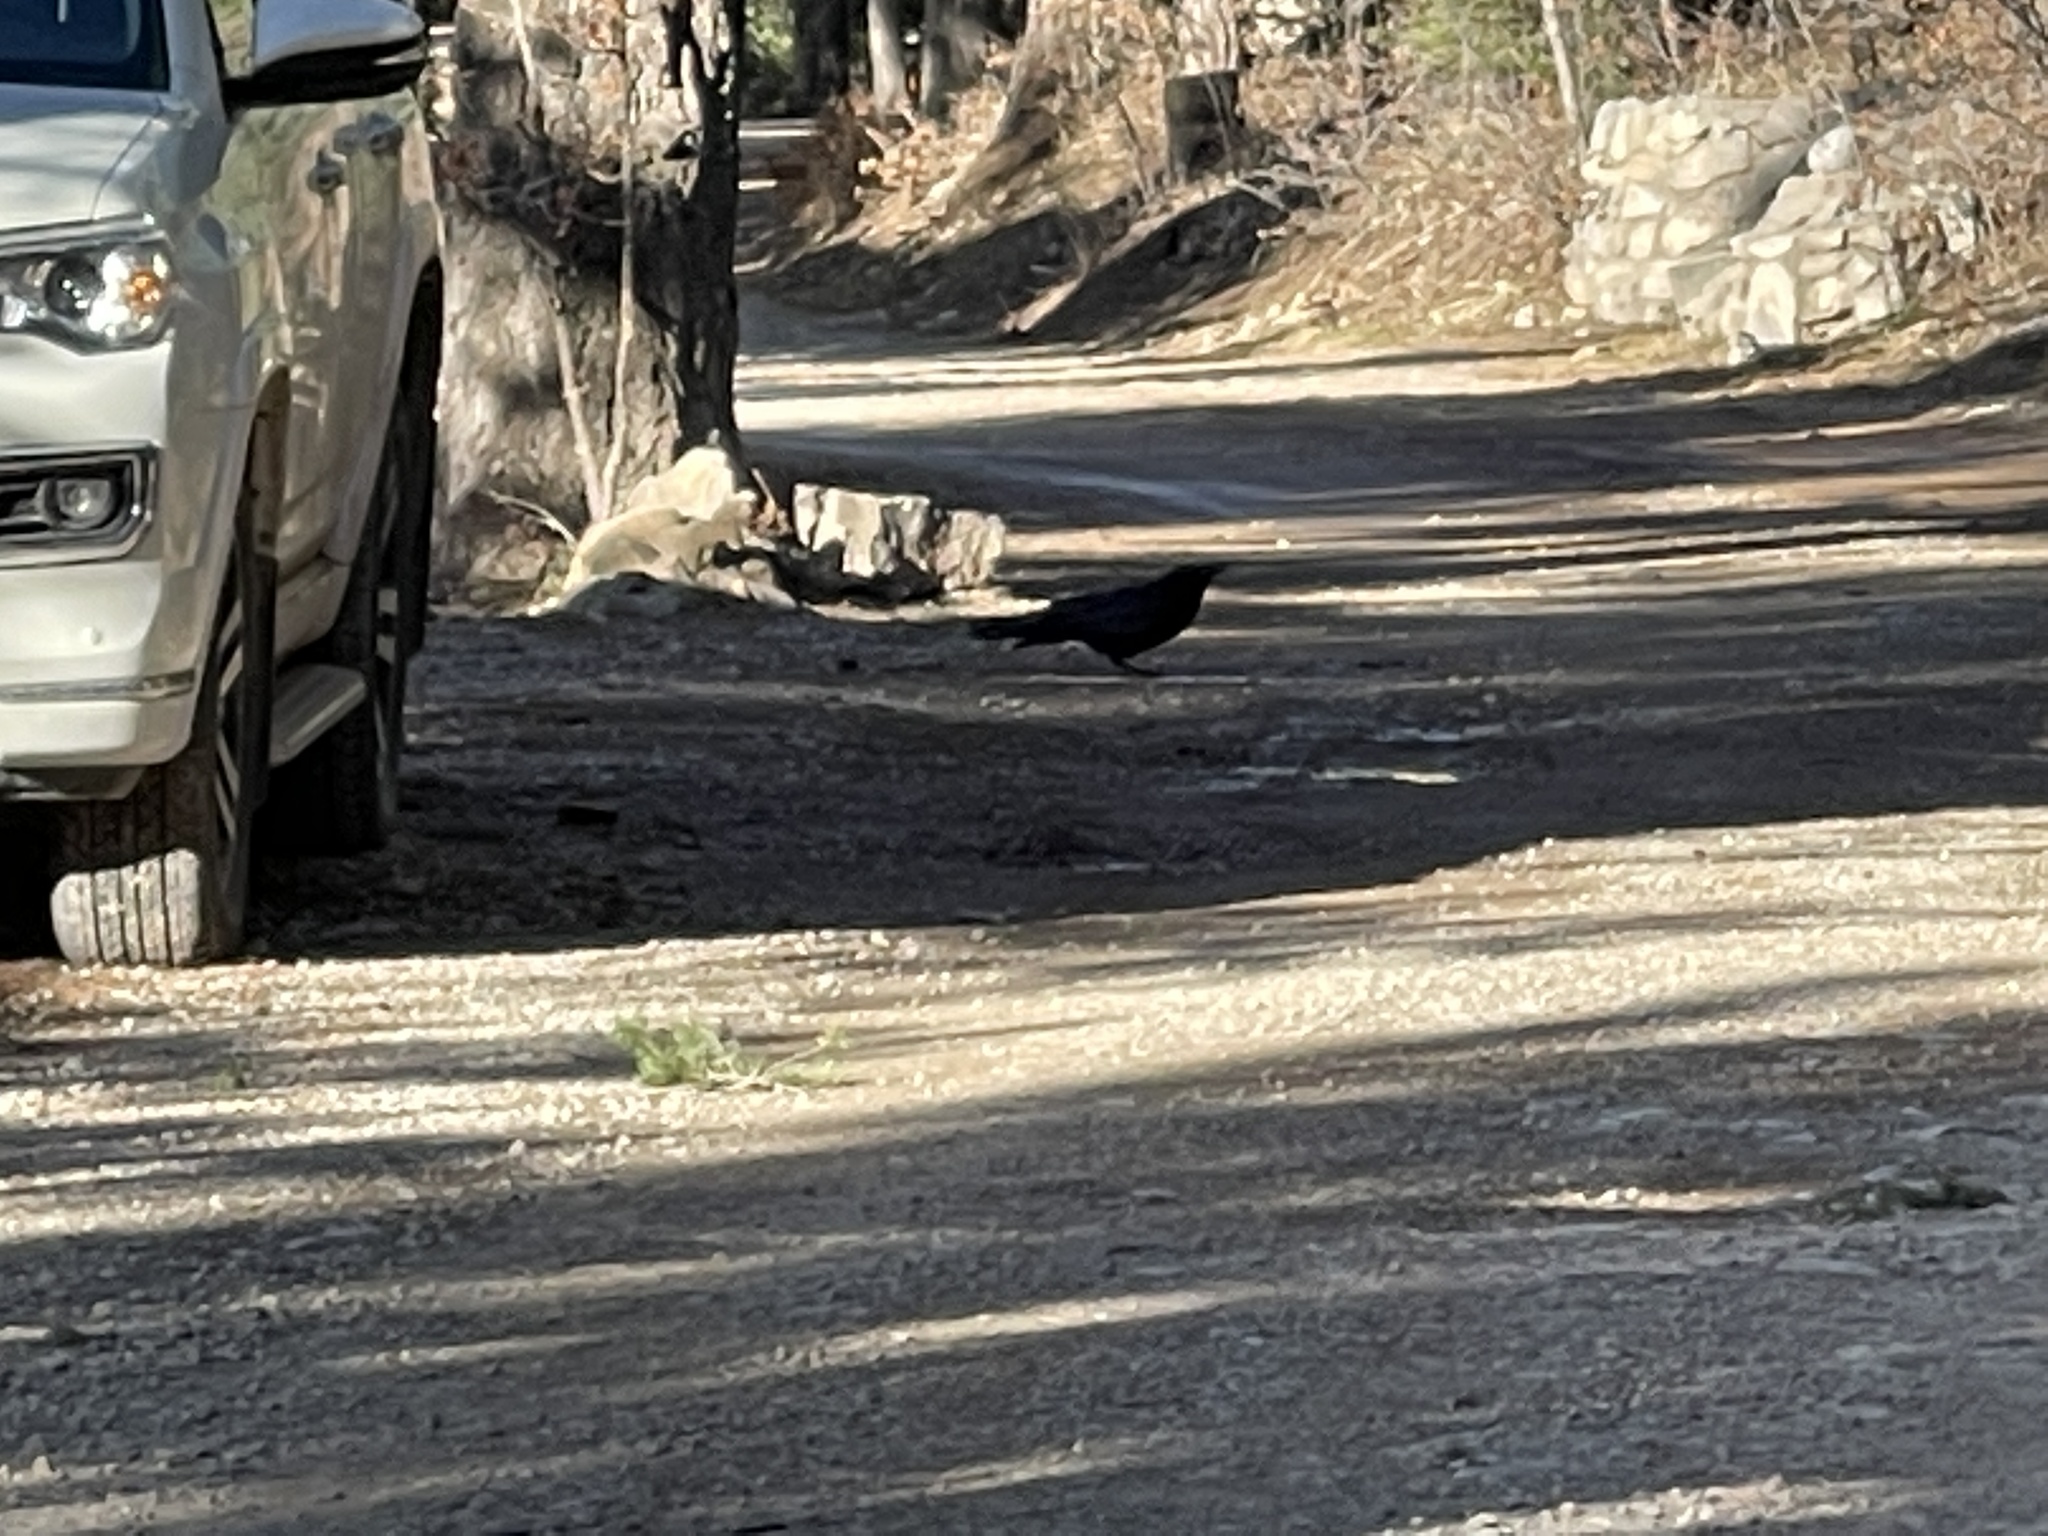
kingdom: Animalia
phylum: Chordata
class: Aves
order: Passeriformes
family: Corvidae
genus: Corvus
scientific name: Corvus corax
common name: Common raven
